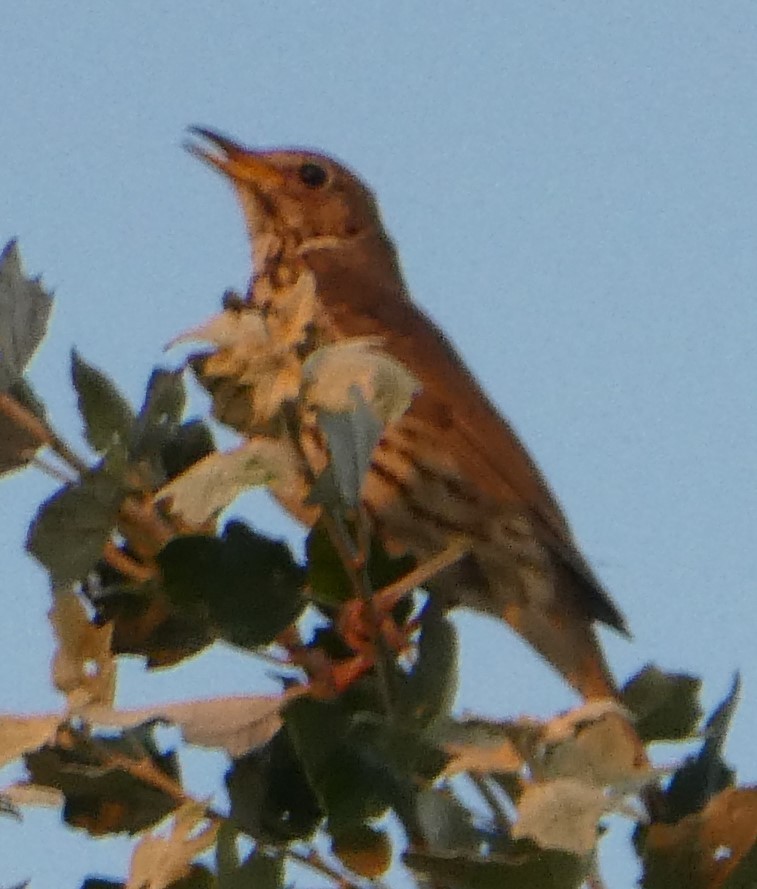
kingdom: Animalia
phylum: Chordata
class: Aves
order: Passeriformes
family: Turdidae
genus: Turdus
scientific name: Turdus philomelos
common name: Song thrush
